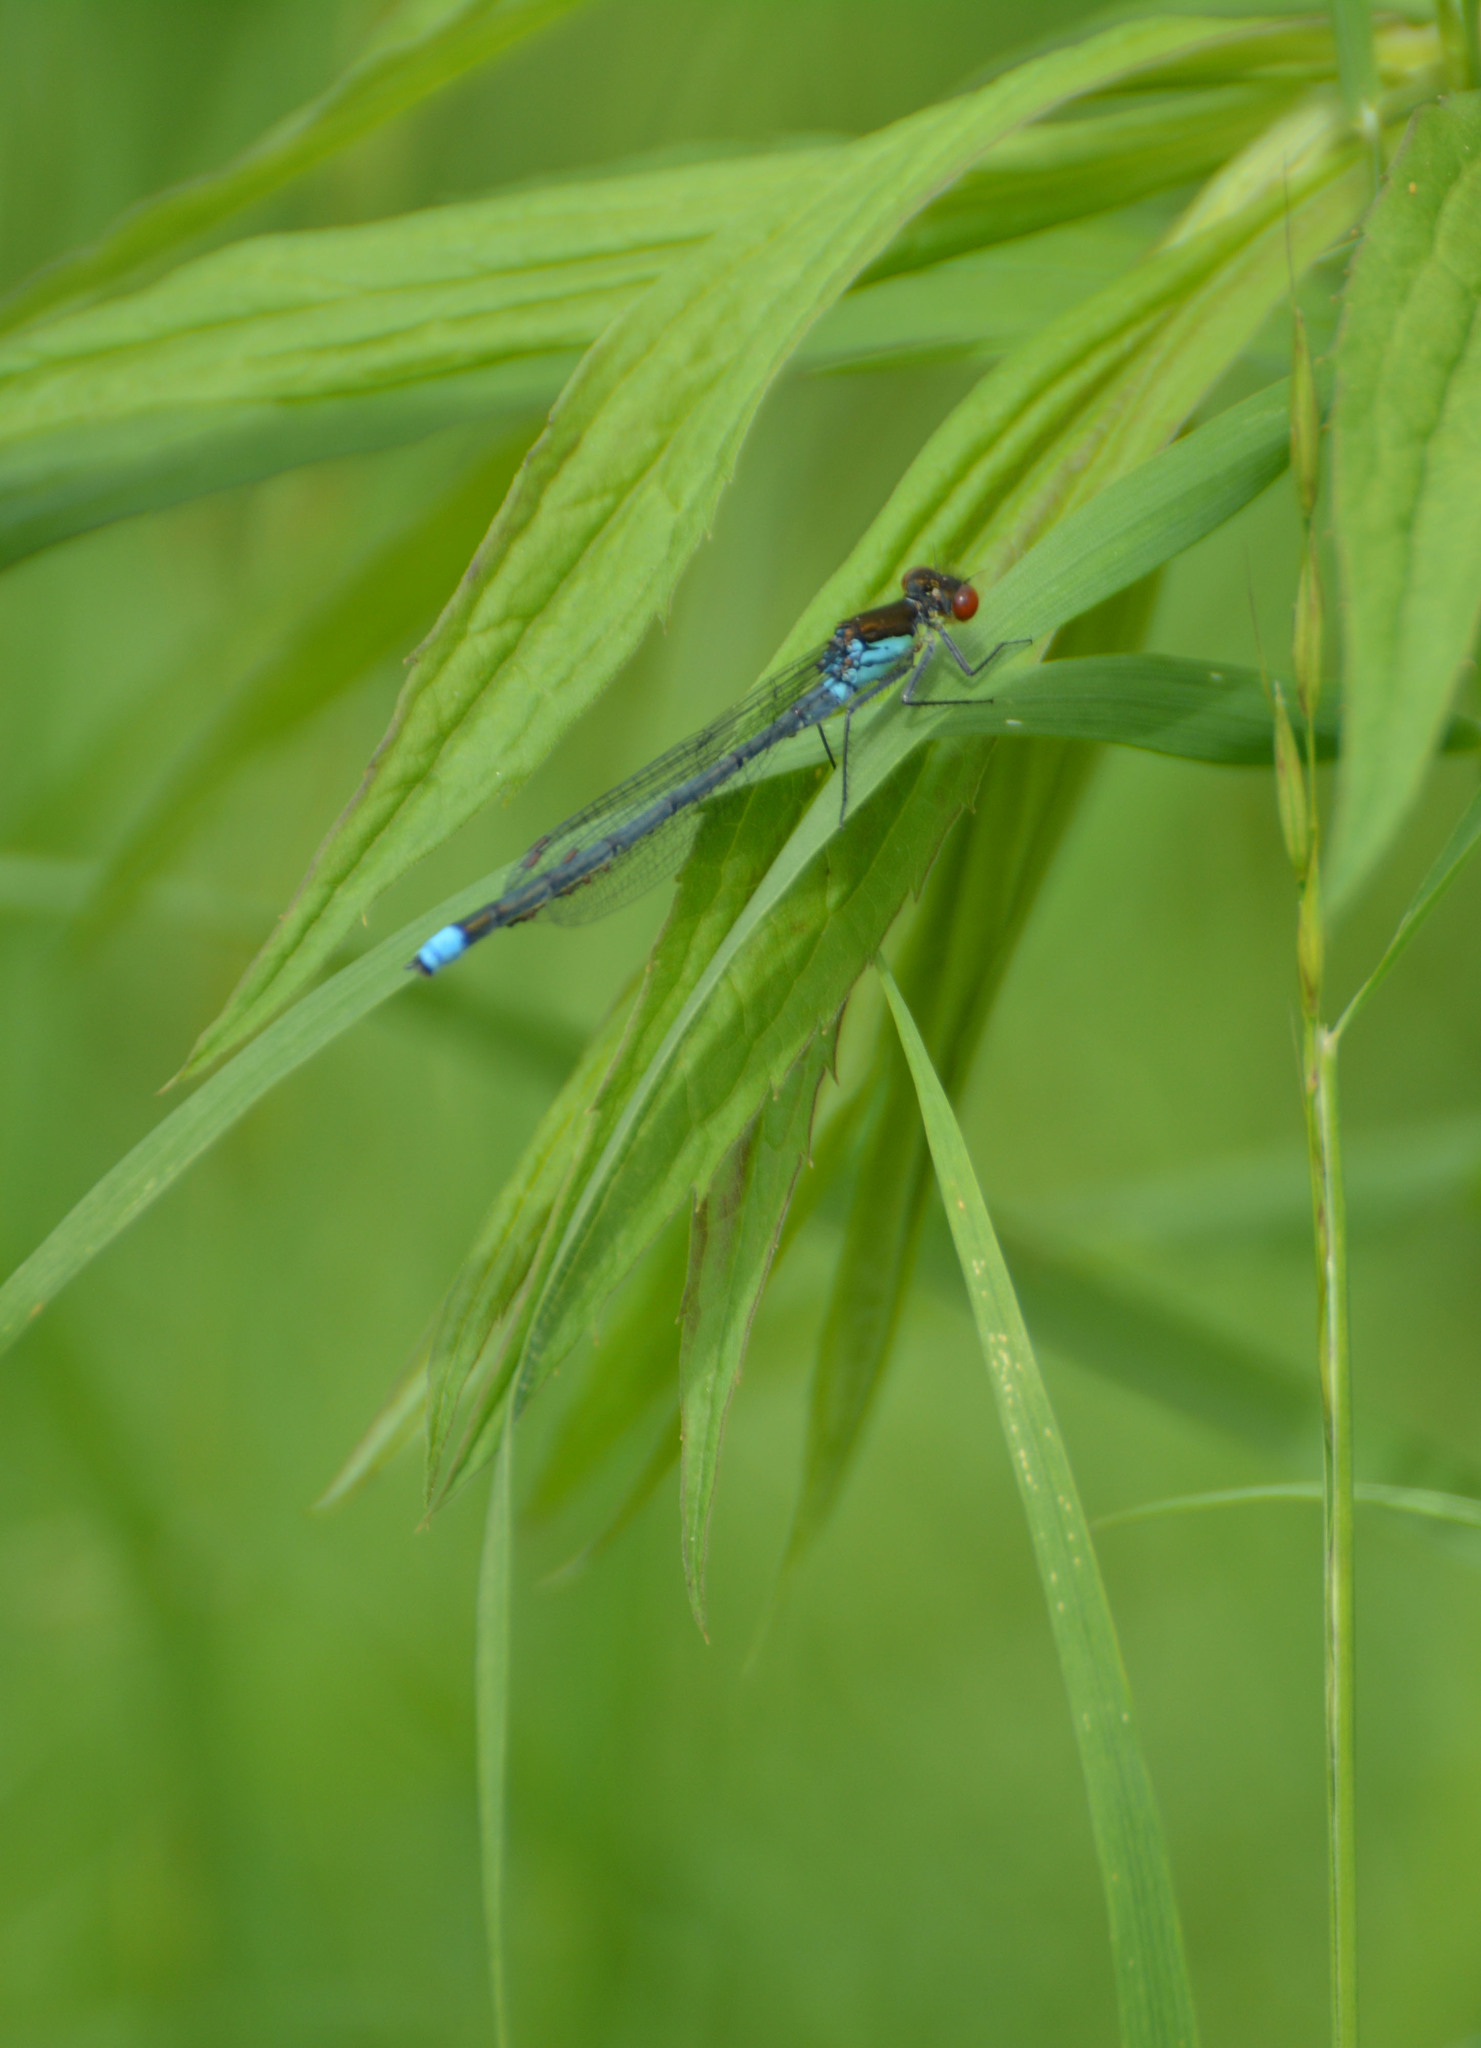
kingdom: Animalia
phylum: Arthropoda
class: Insecta
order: Odonata
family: Coenagrionidae
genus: Erythromma
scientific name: Erythromma najas
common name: Red-eyed damselfly
